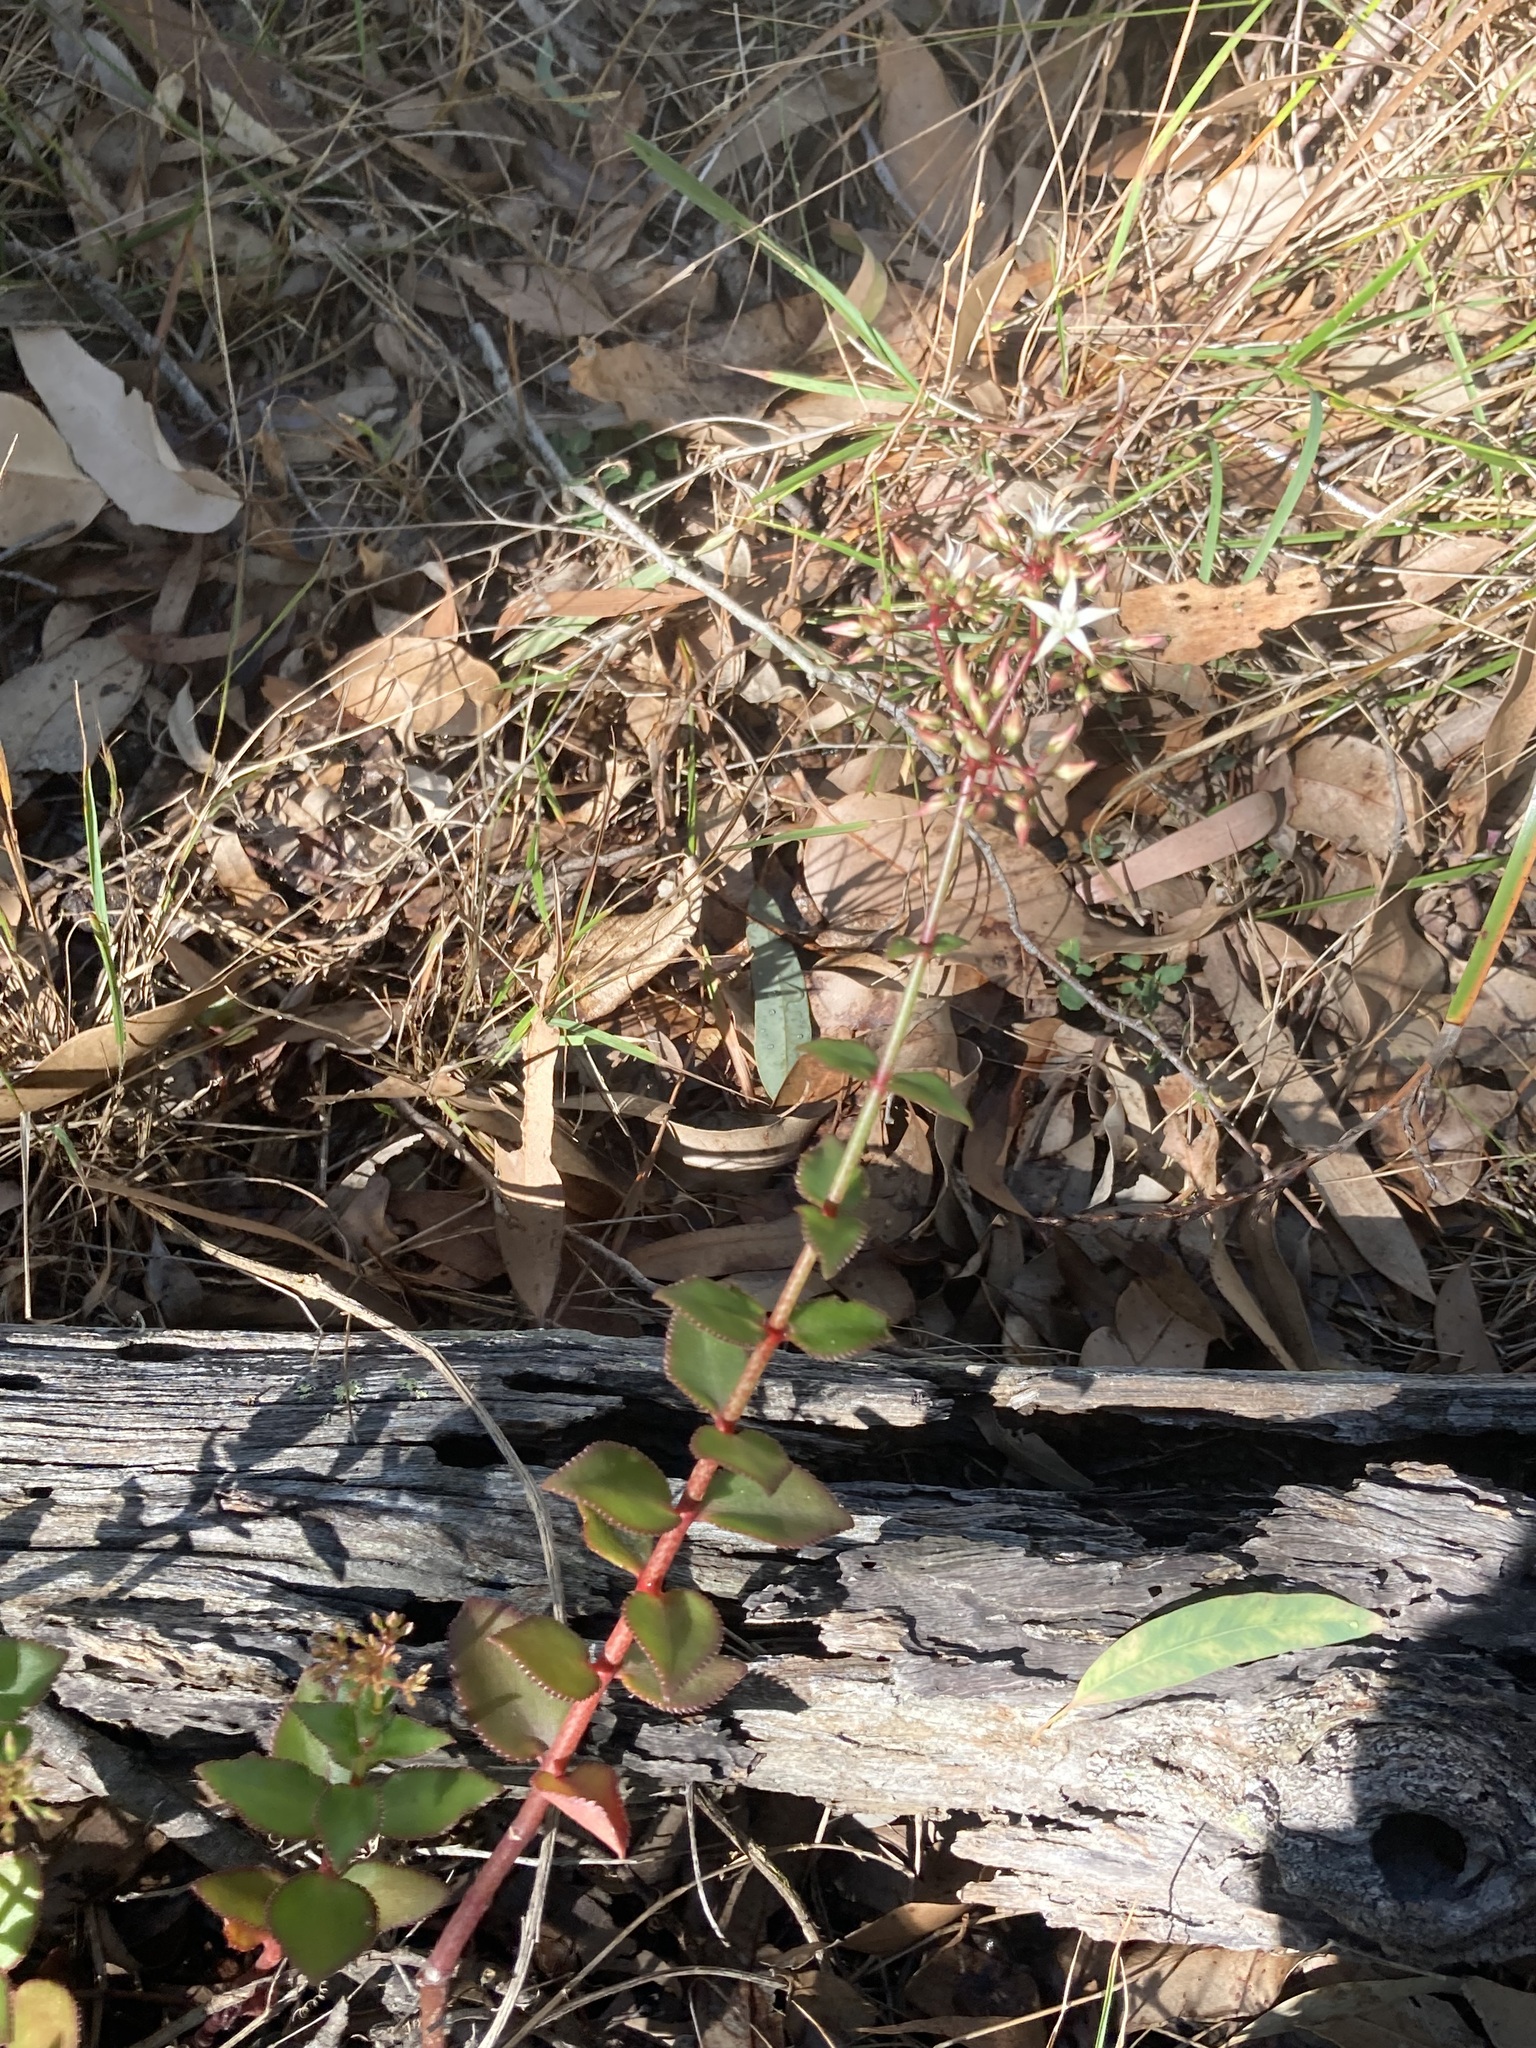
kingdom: Plantae
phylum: Tracheophyta
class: Magnoliopsida
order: Saxifragales
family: Crassulaceae
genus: Crassula
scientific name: Crassula sarmentosa
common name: Jade-tree
